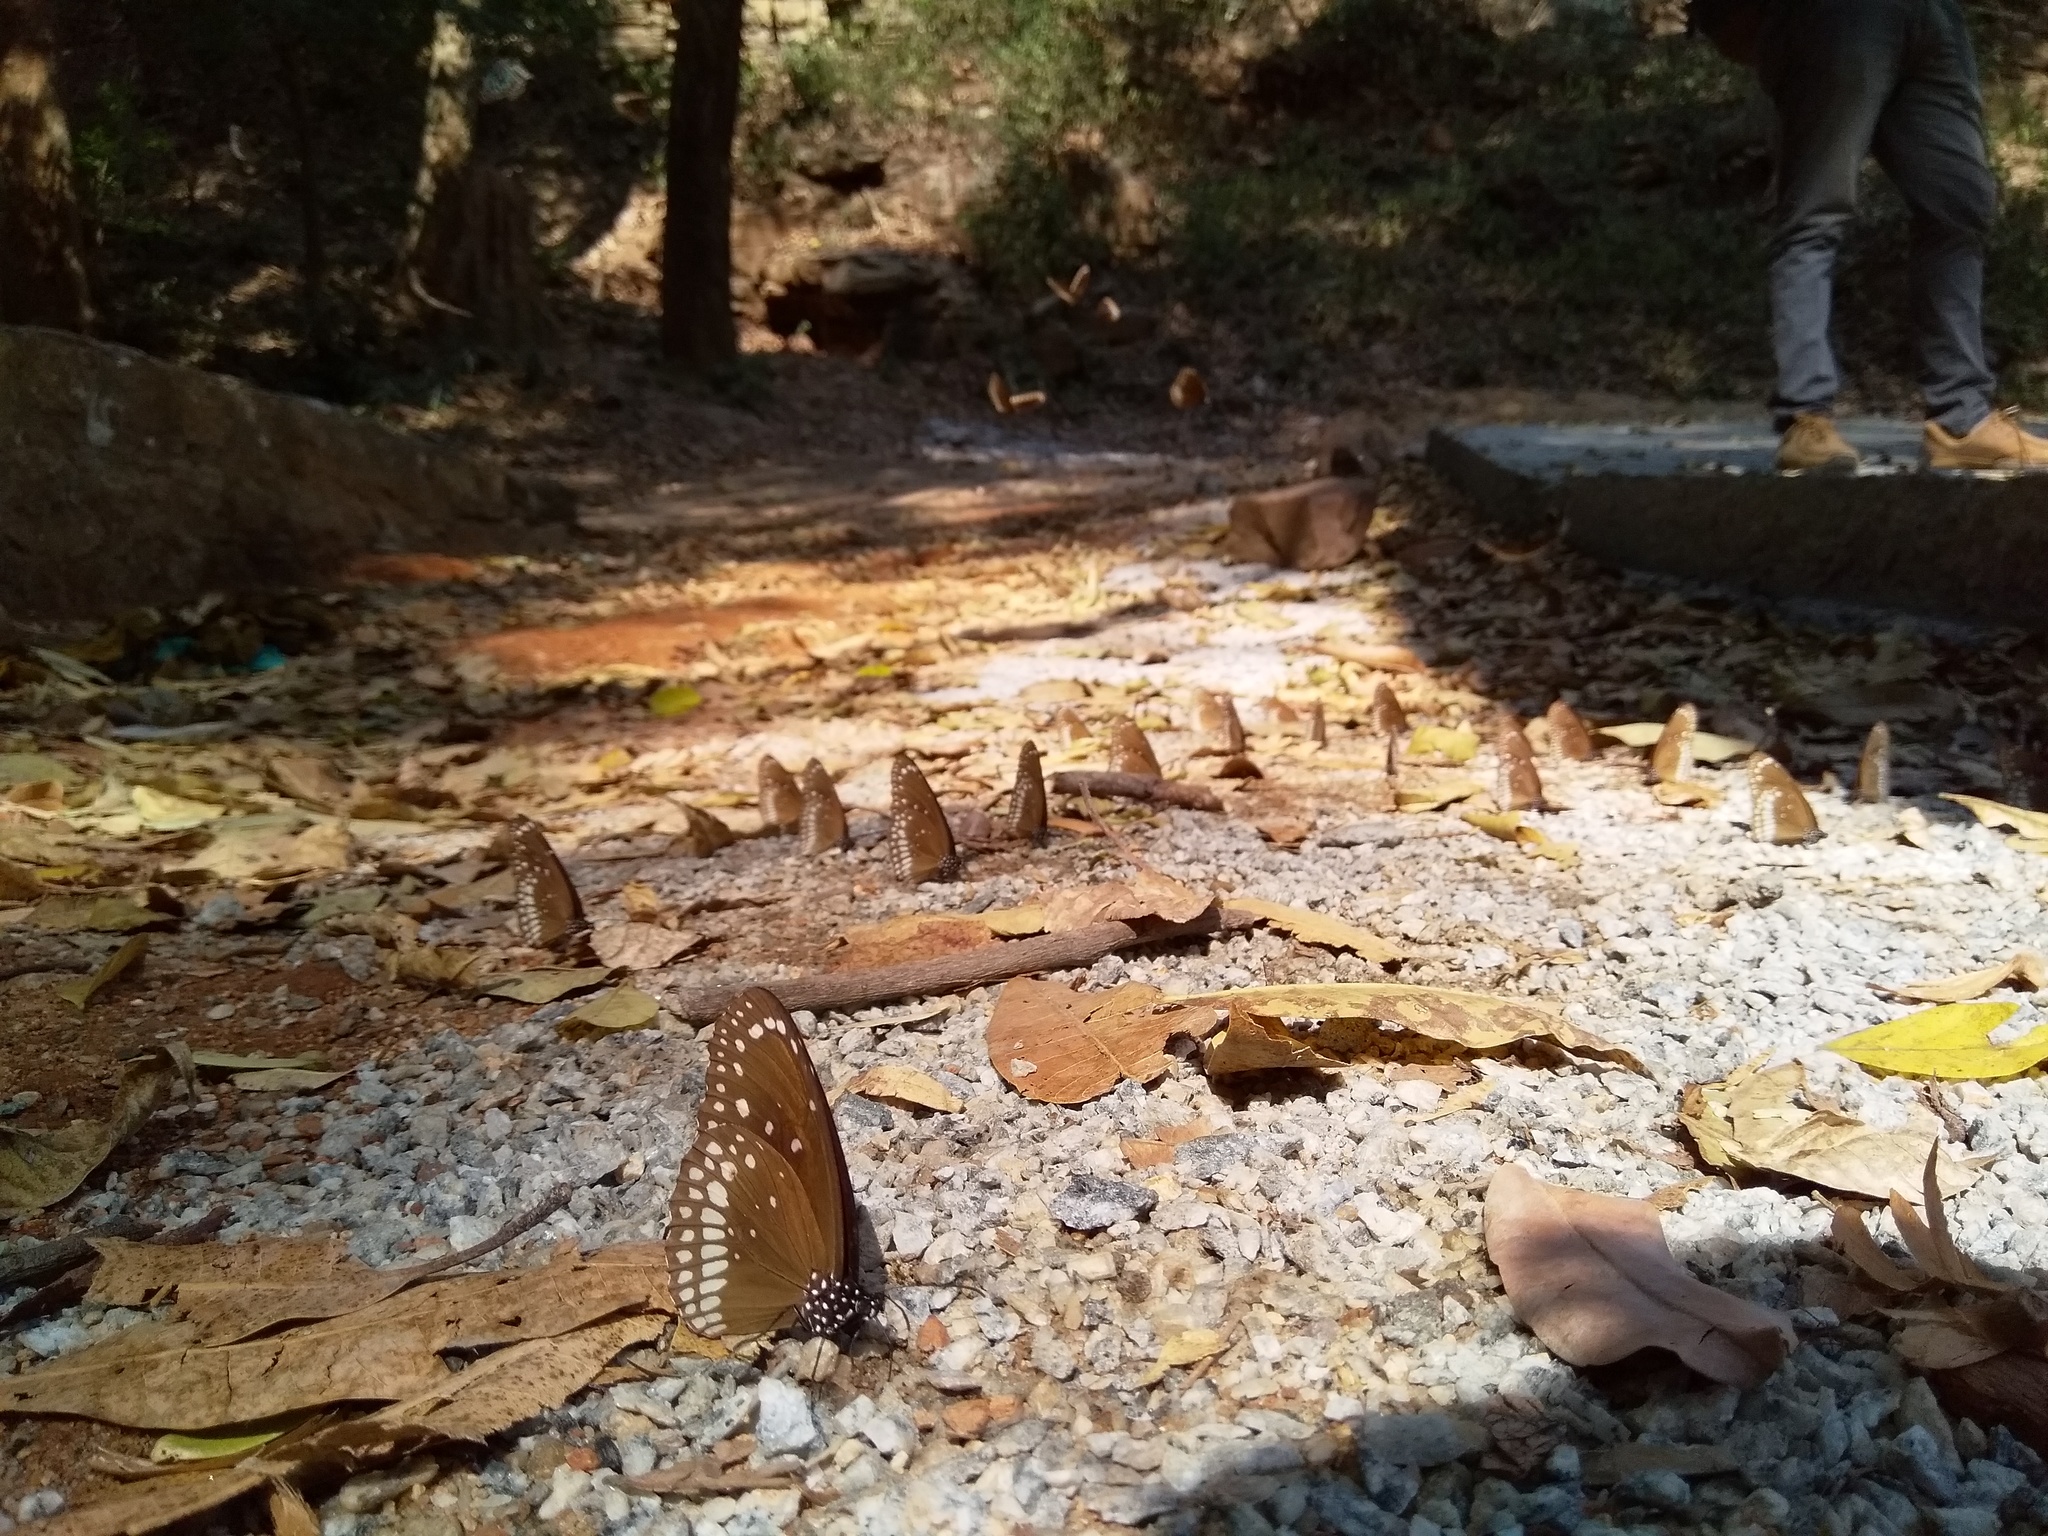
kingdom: Animalia
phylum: Arthropoda
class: Insecta
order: Lepidoptera
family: Nymphalidae
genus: Euploea
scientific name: Euploea core
